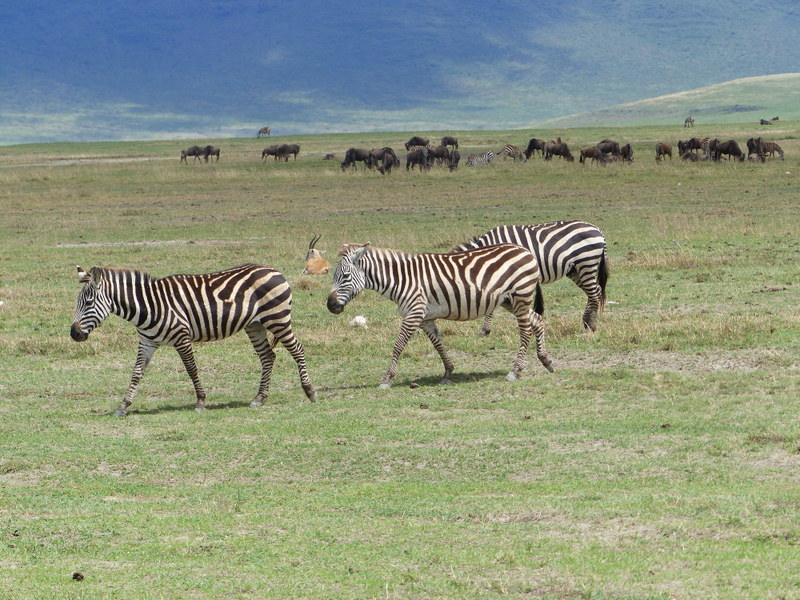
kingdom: Animalia
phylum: Chordata
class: Mammalia
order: Perissodactyla
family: Equidae
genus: Equus
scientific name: Equus quagga
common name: Plains zebra
